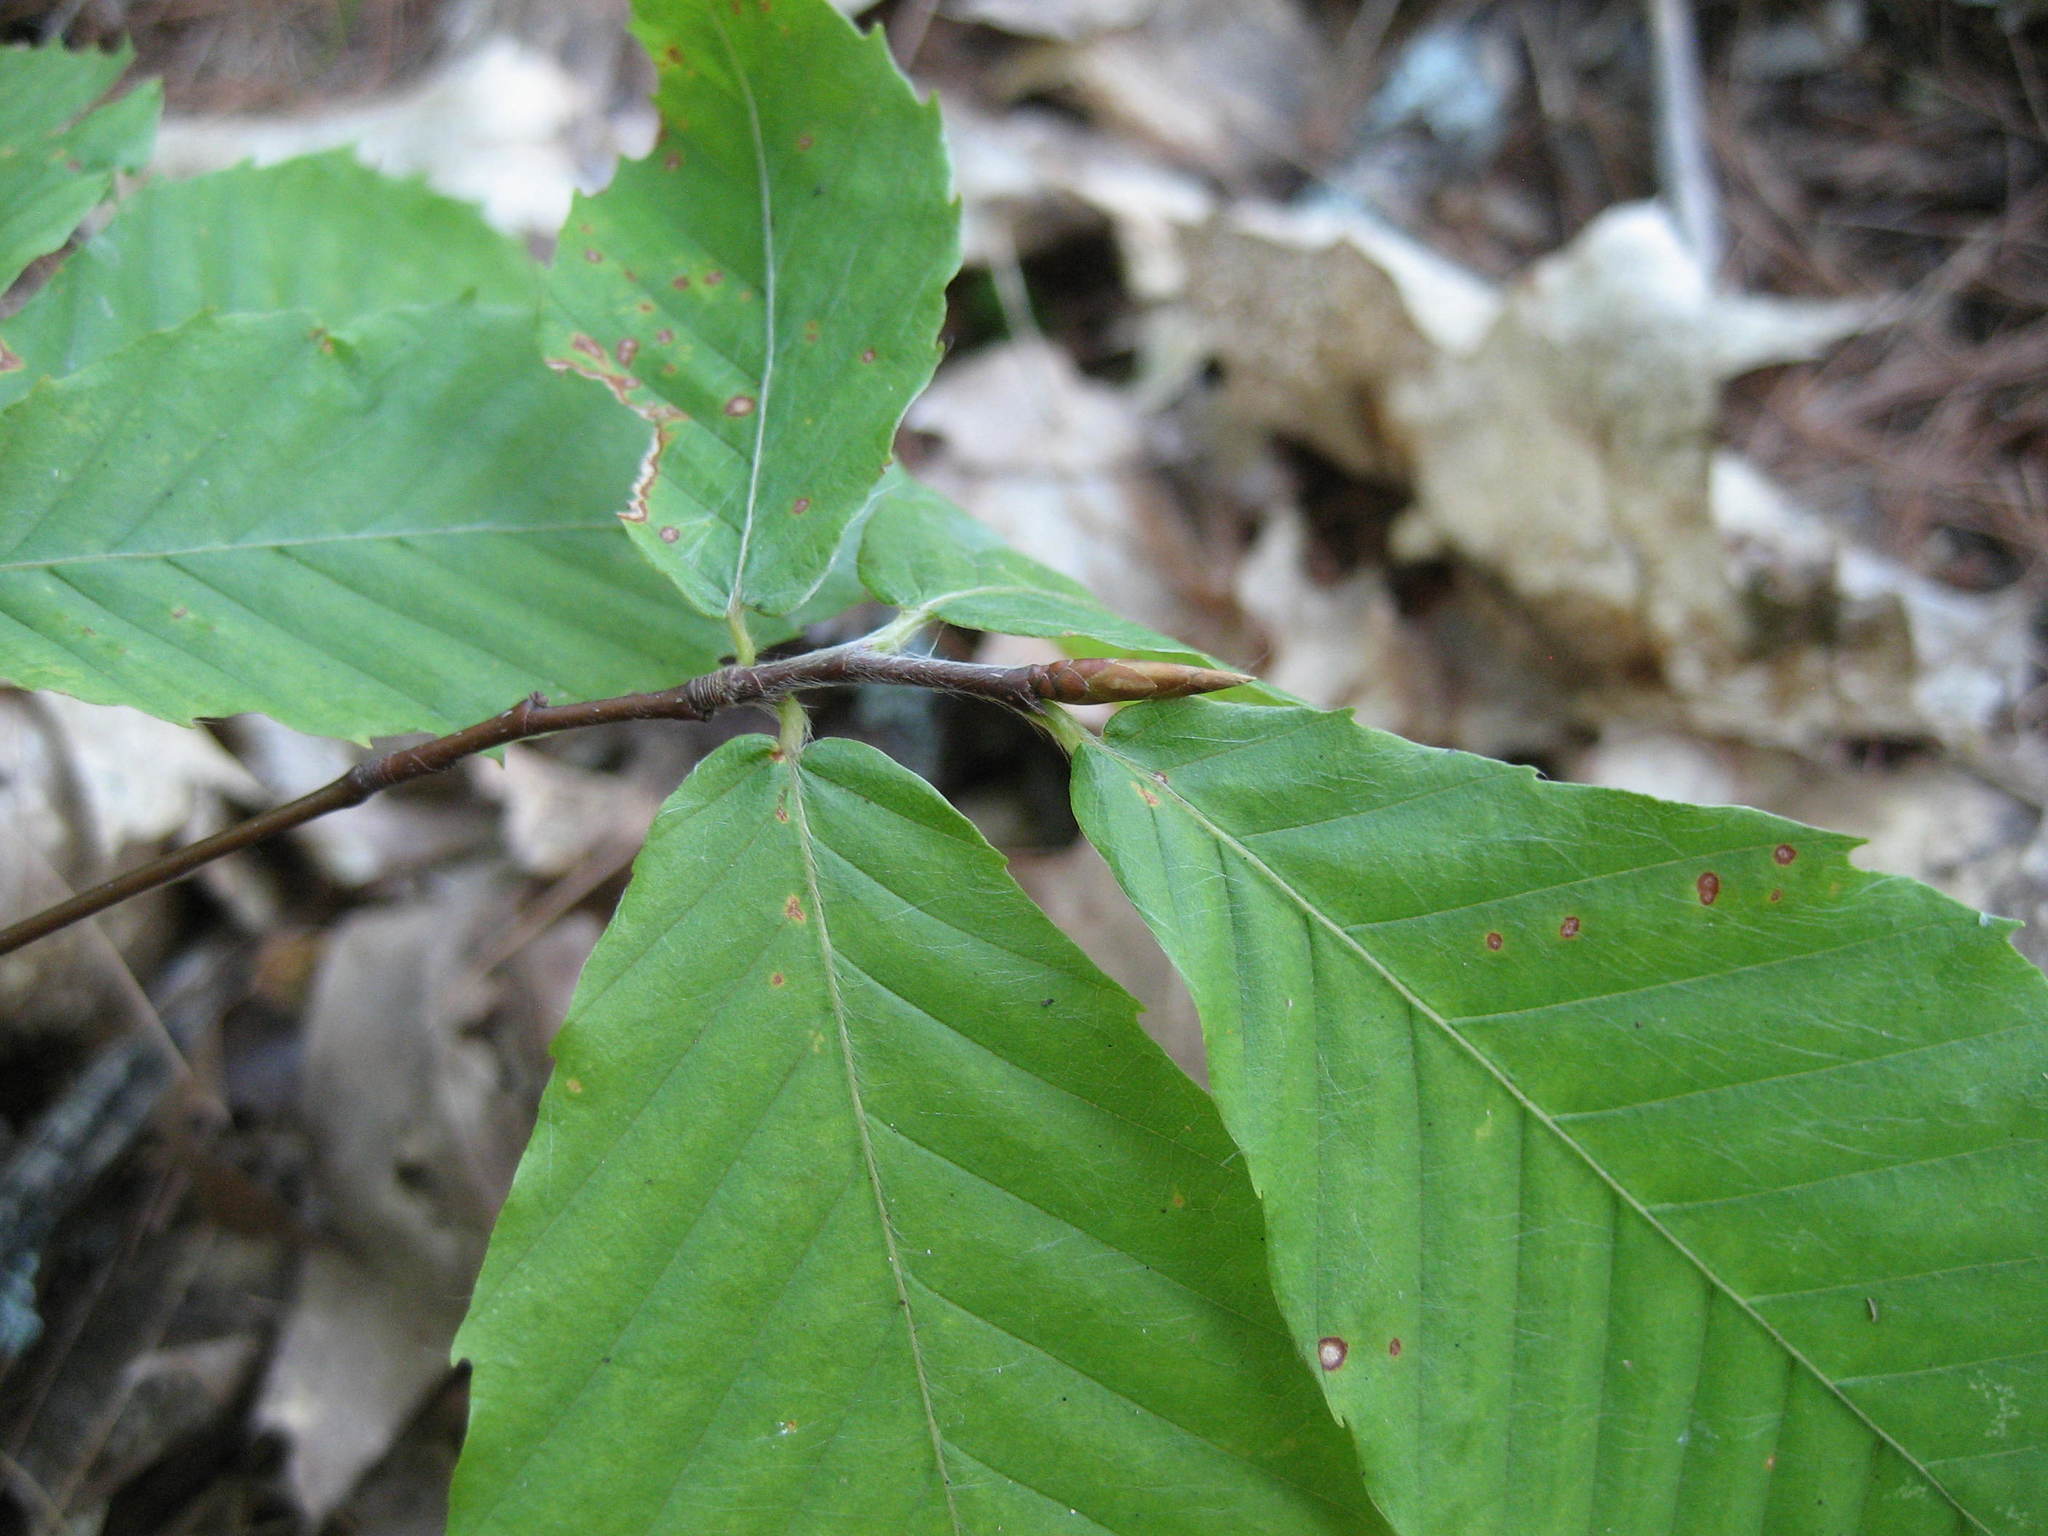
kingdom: Plantae
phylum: Tracheophyta
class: Magnoliopsida
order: Fagales
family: Fagaceae
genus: Fagus
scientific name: Fagus grandifolia
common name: American beech
